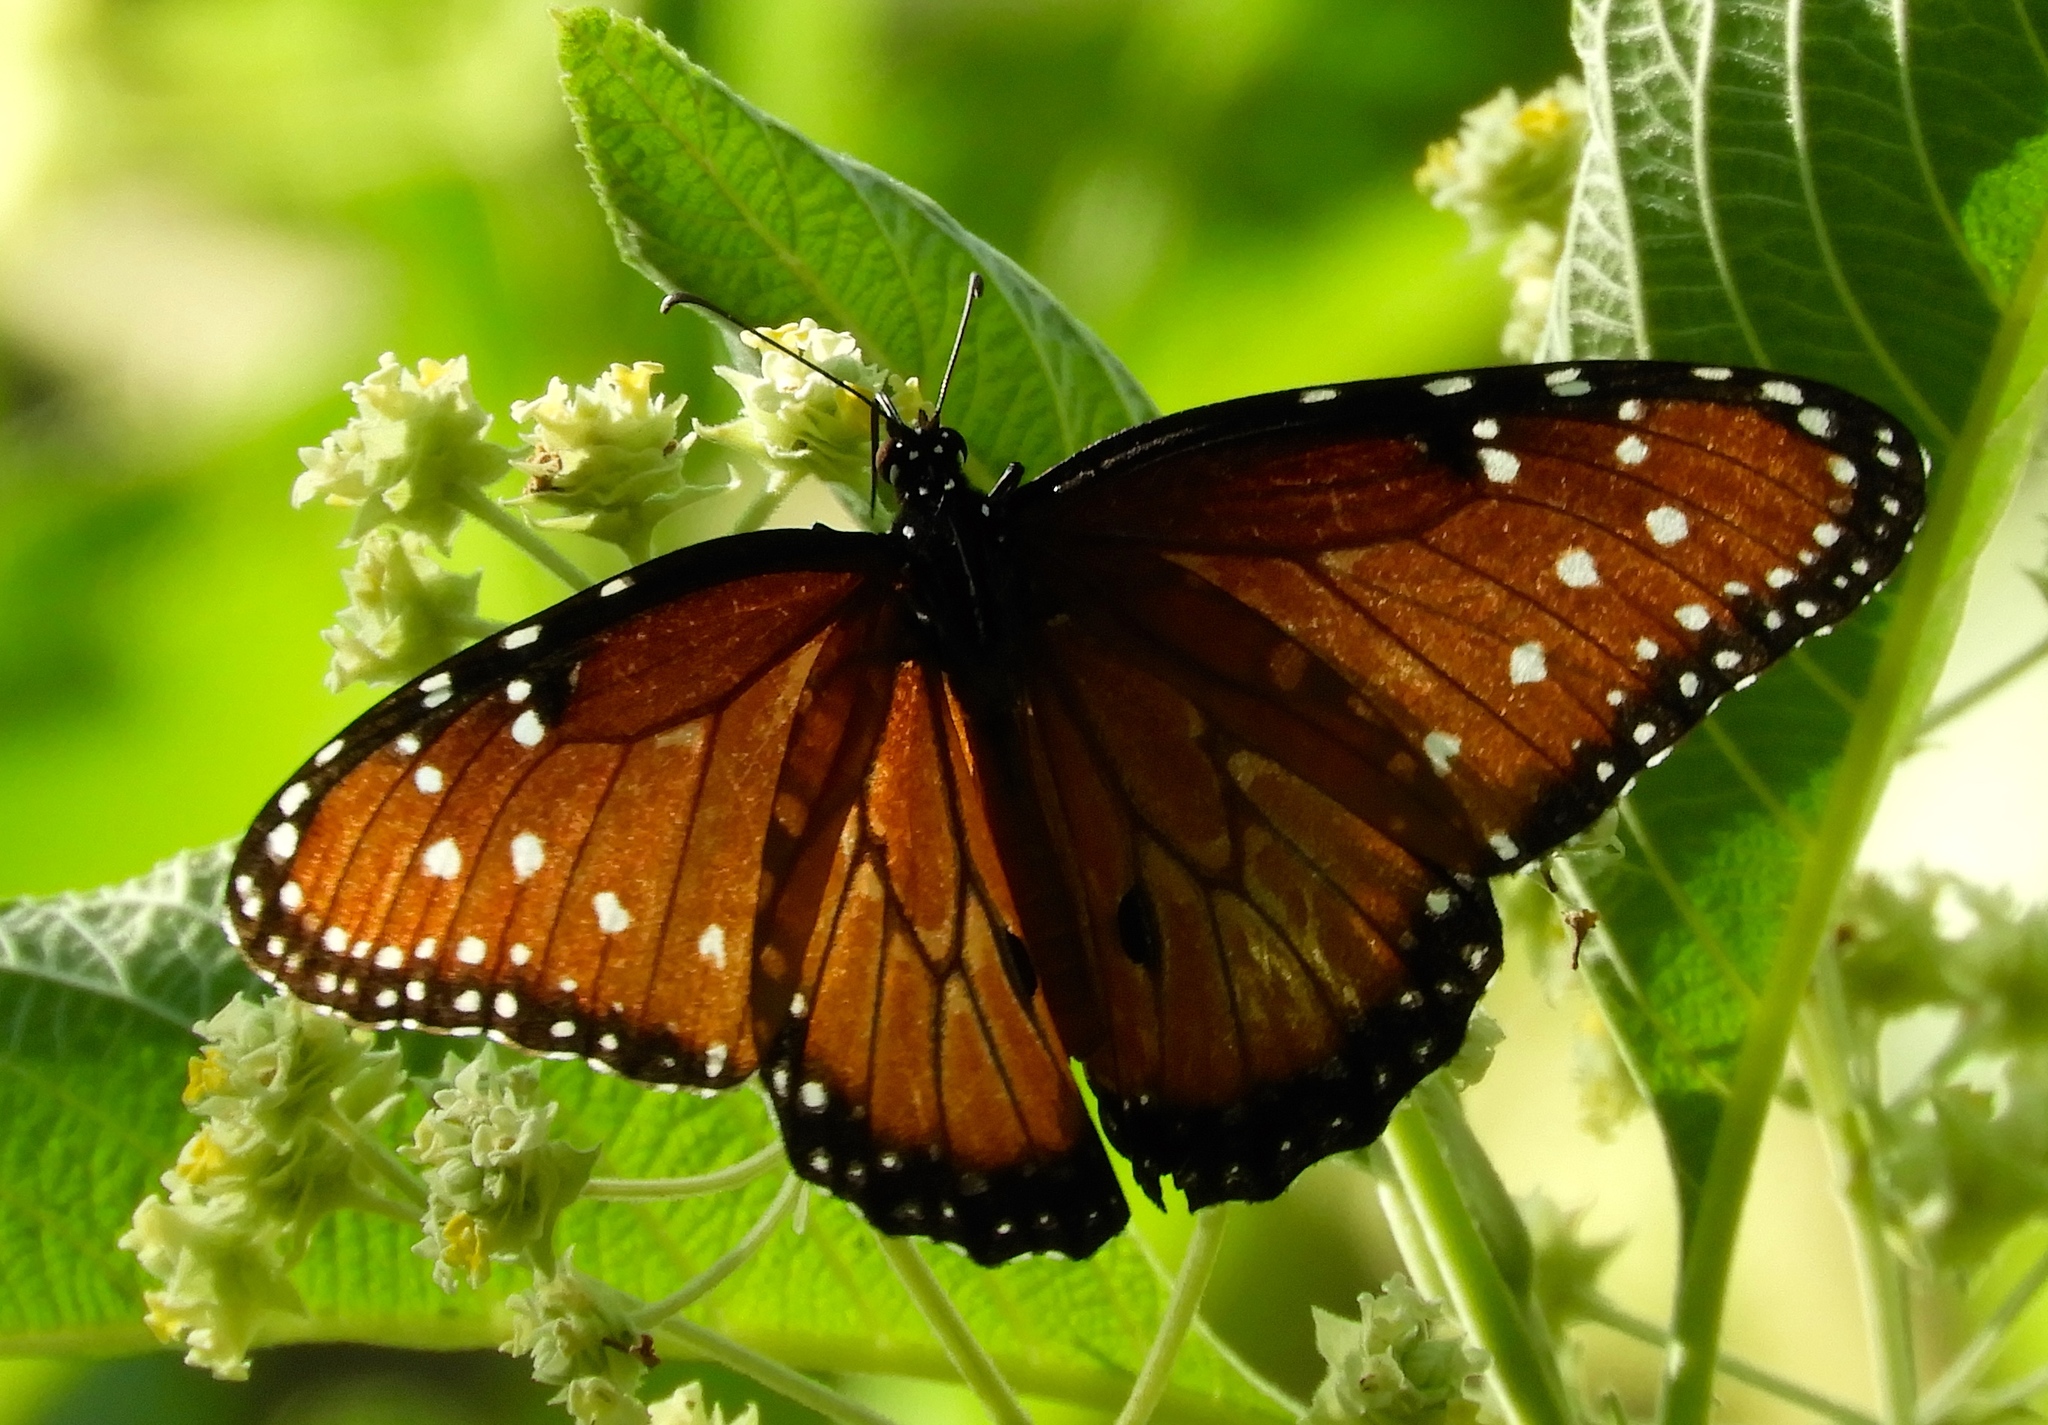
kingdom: Animalia
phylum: Arthropoda
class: Insecta
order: Lepidoptera
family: Nymphalidae
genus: Danaus
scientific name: Danaus gilippus
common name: Queen
